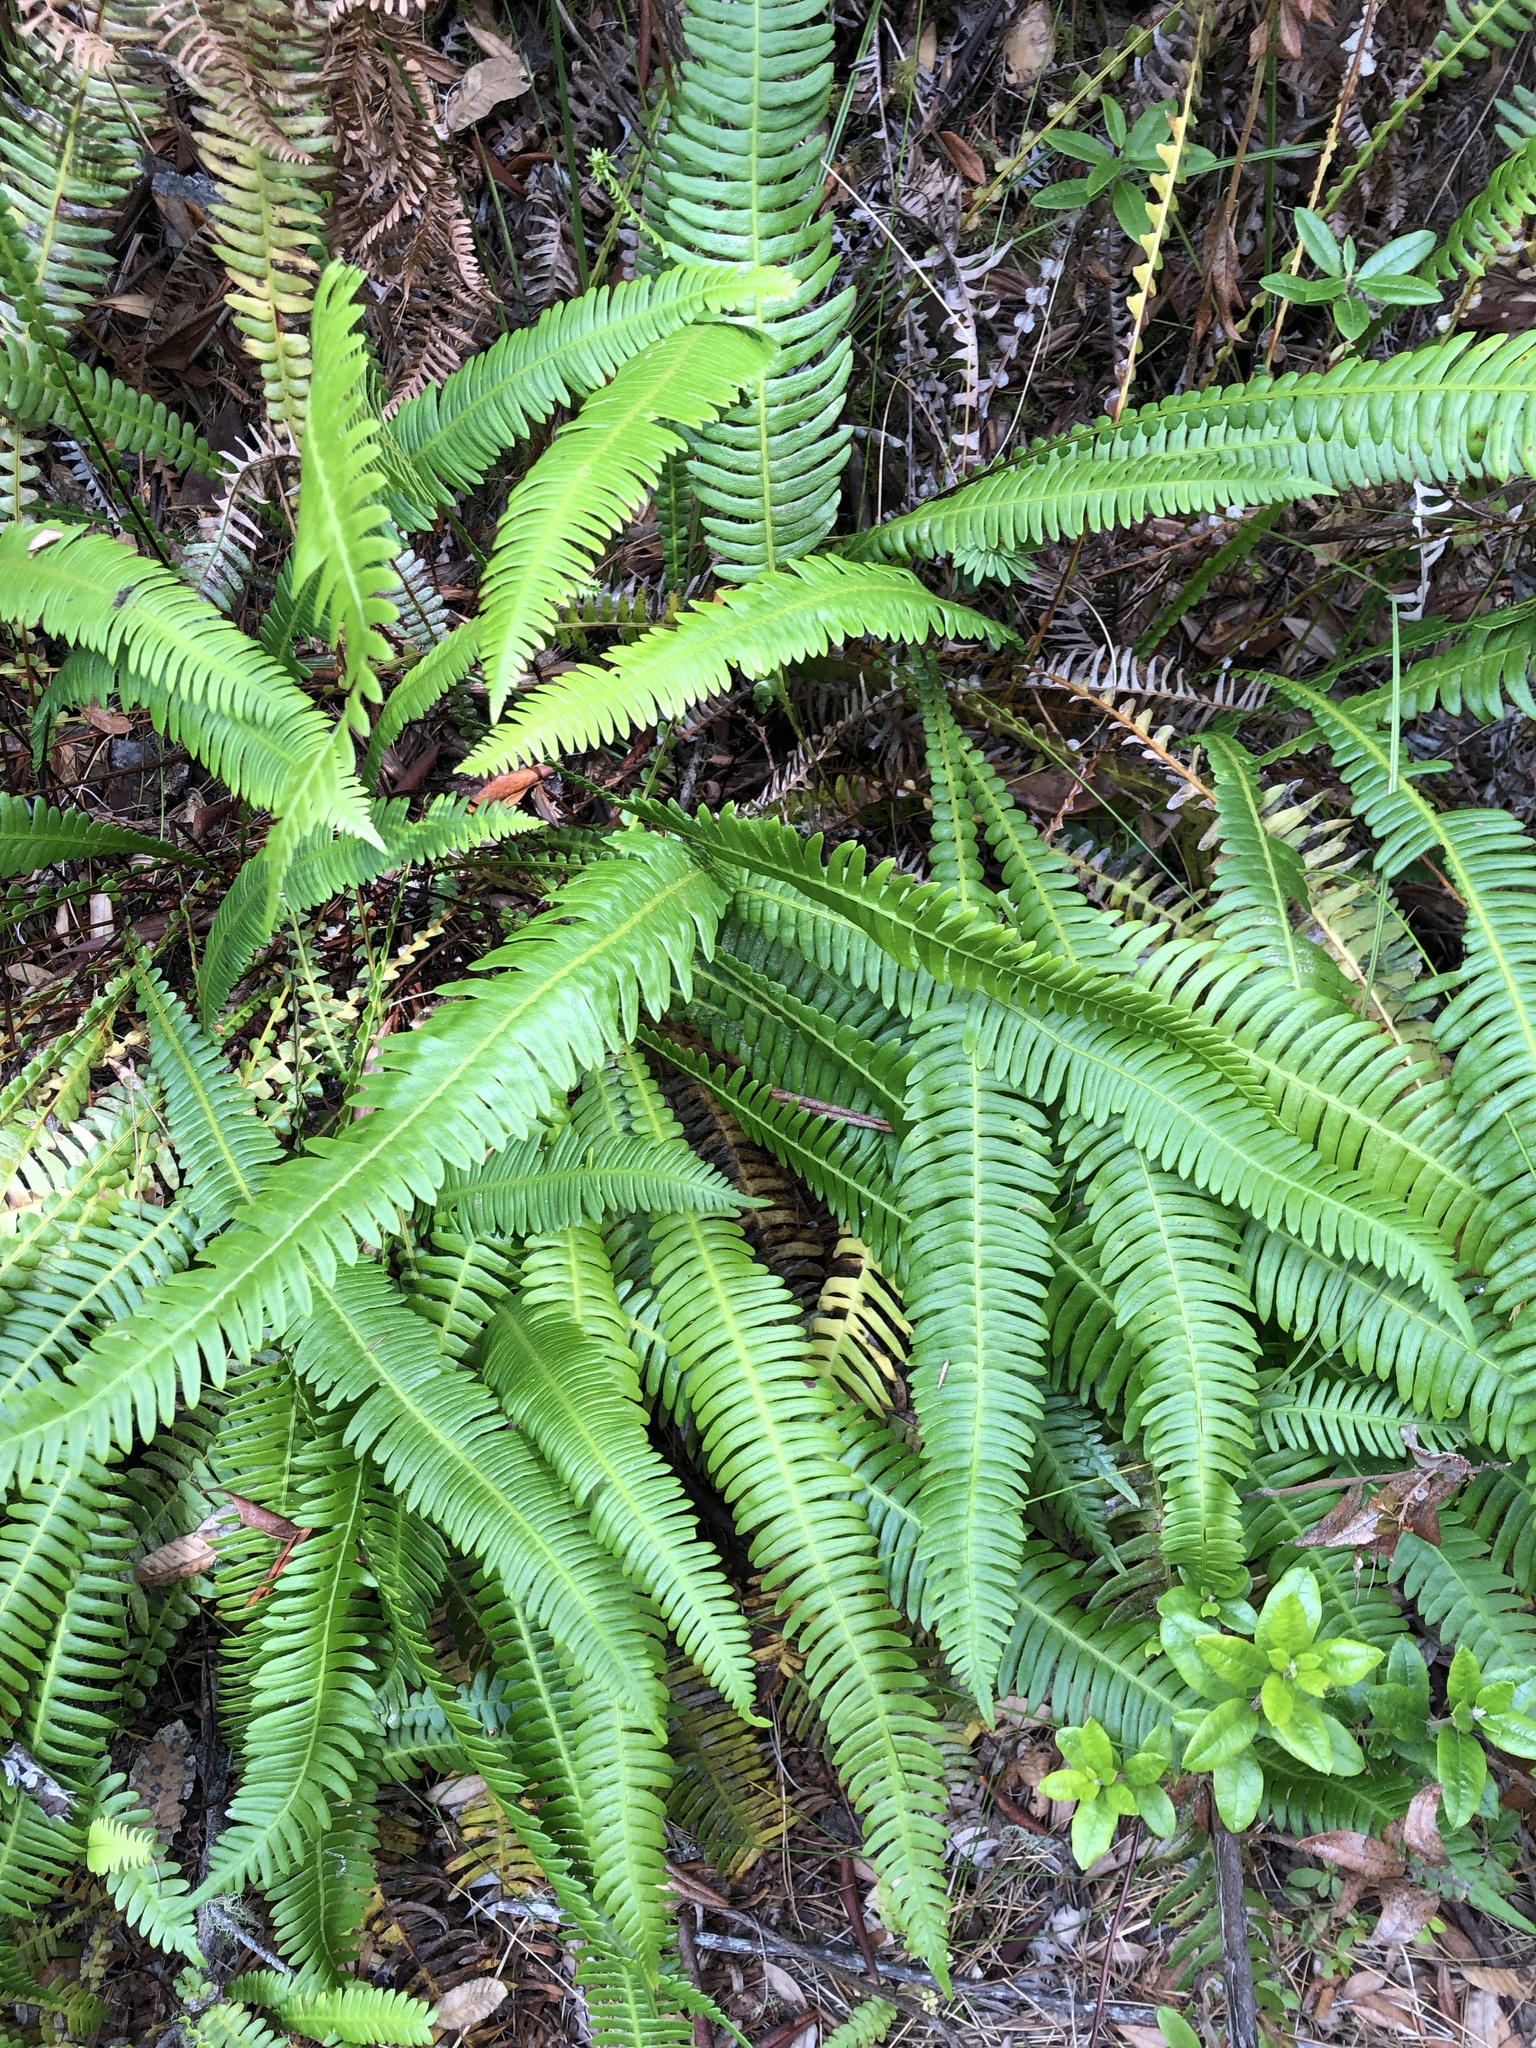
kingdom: Plantae
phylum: Tracheophyta
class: Polypodiopsida
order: Polypodiales
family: Blechnaceae
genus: Struthiopteris
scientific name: Struthiopteris spicant
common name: Deer fern
